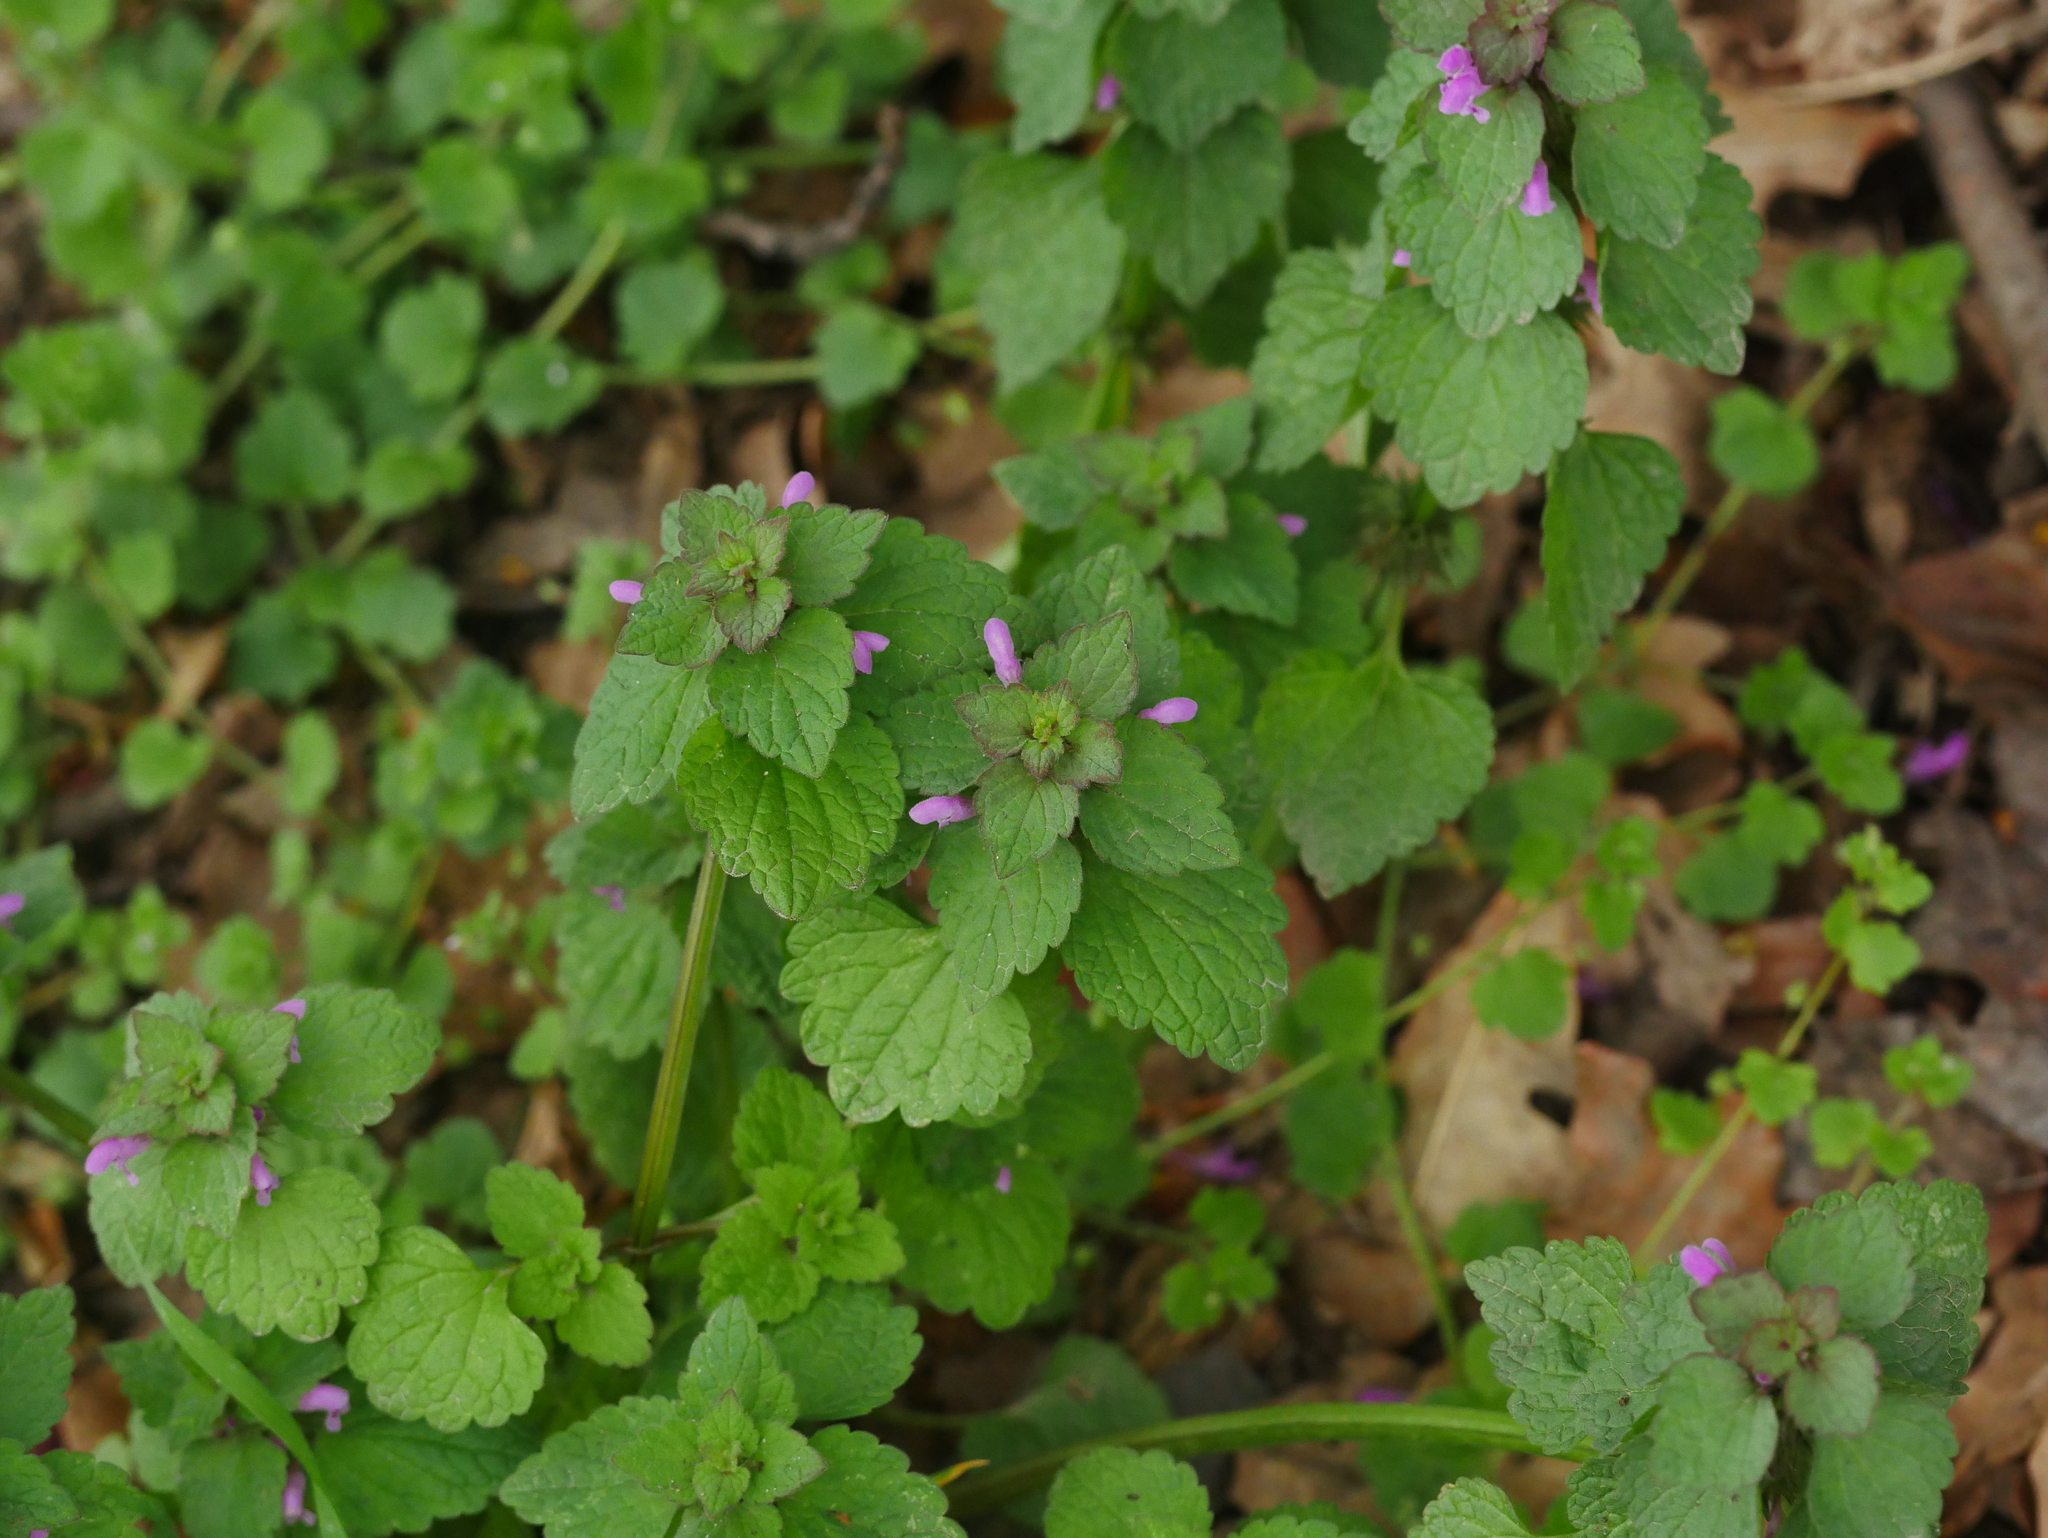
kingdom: Plantae
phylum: Tracheophyta
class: Magnoliopsida
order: Lamiales
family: Lamiaceae
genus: Lamium
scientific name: Lamium purpureum
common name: Red dead-nettle
